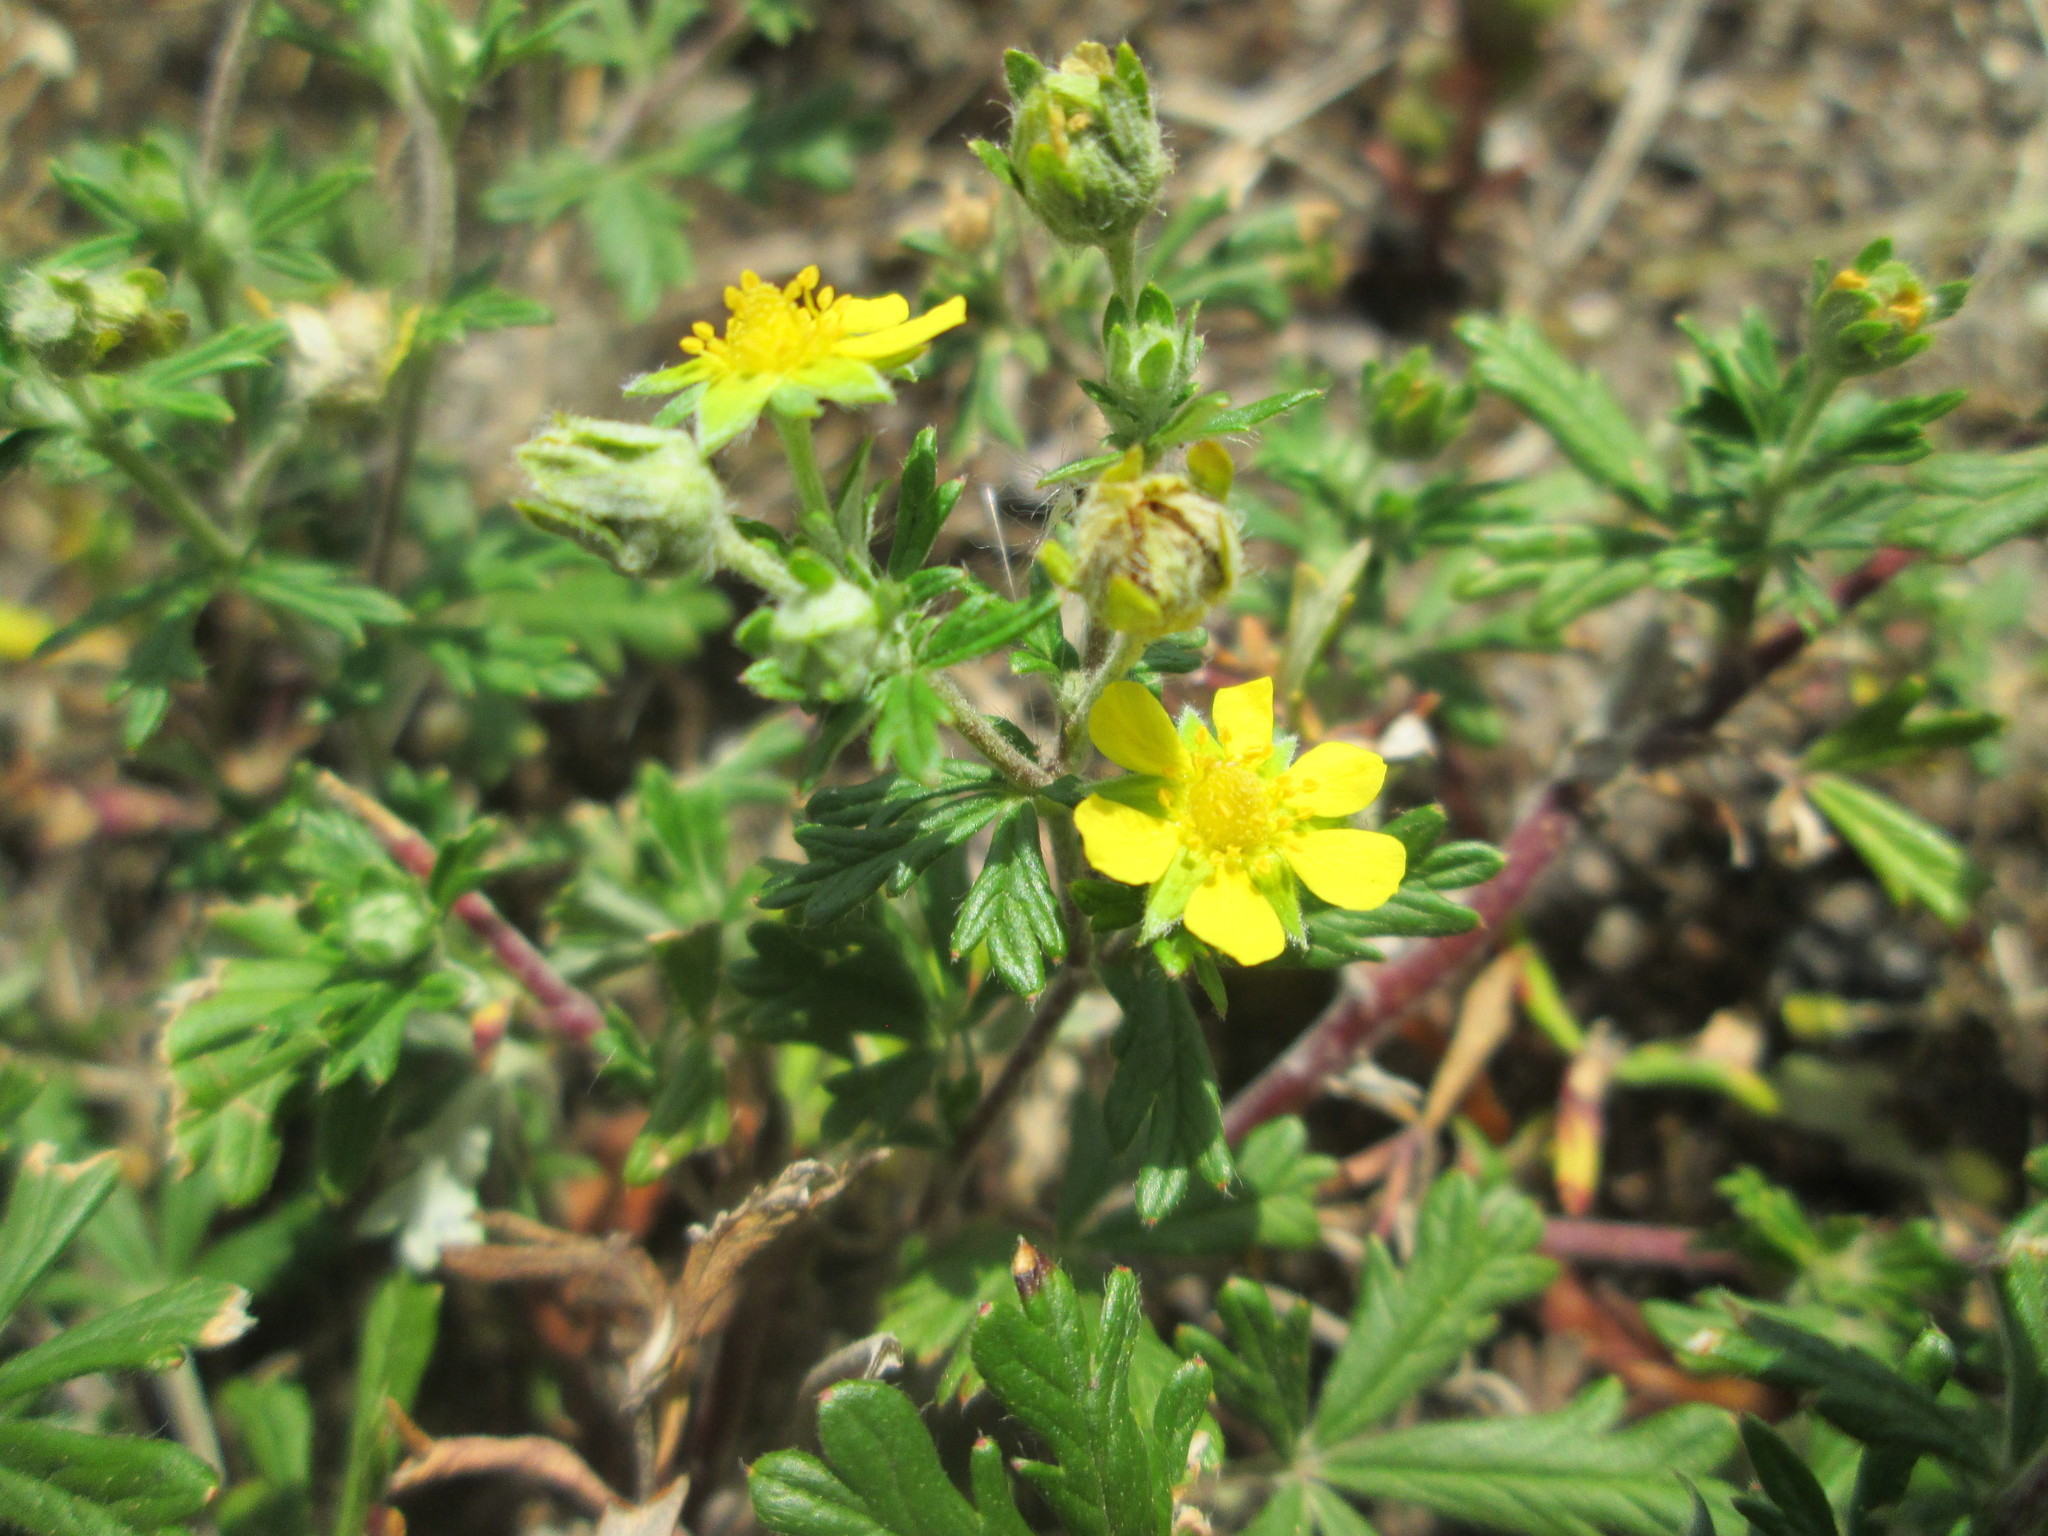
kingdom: Plantae
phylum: Tracheophyta
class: Magnoliopsida
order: Rosales
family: Rosaceae
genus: Potentilla
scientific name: Potentilla argentea
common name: Hoary cinquefoil
